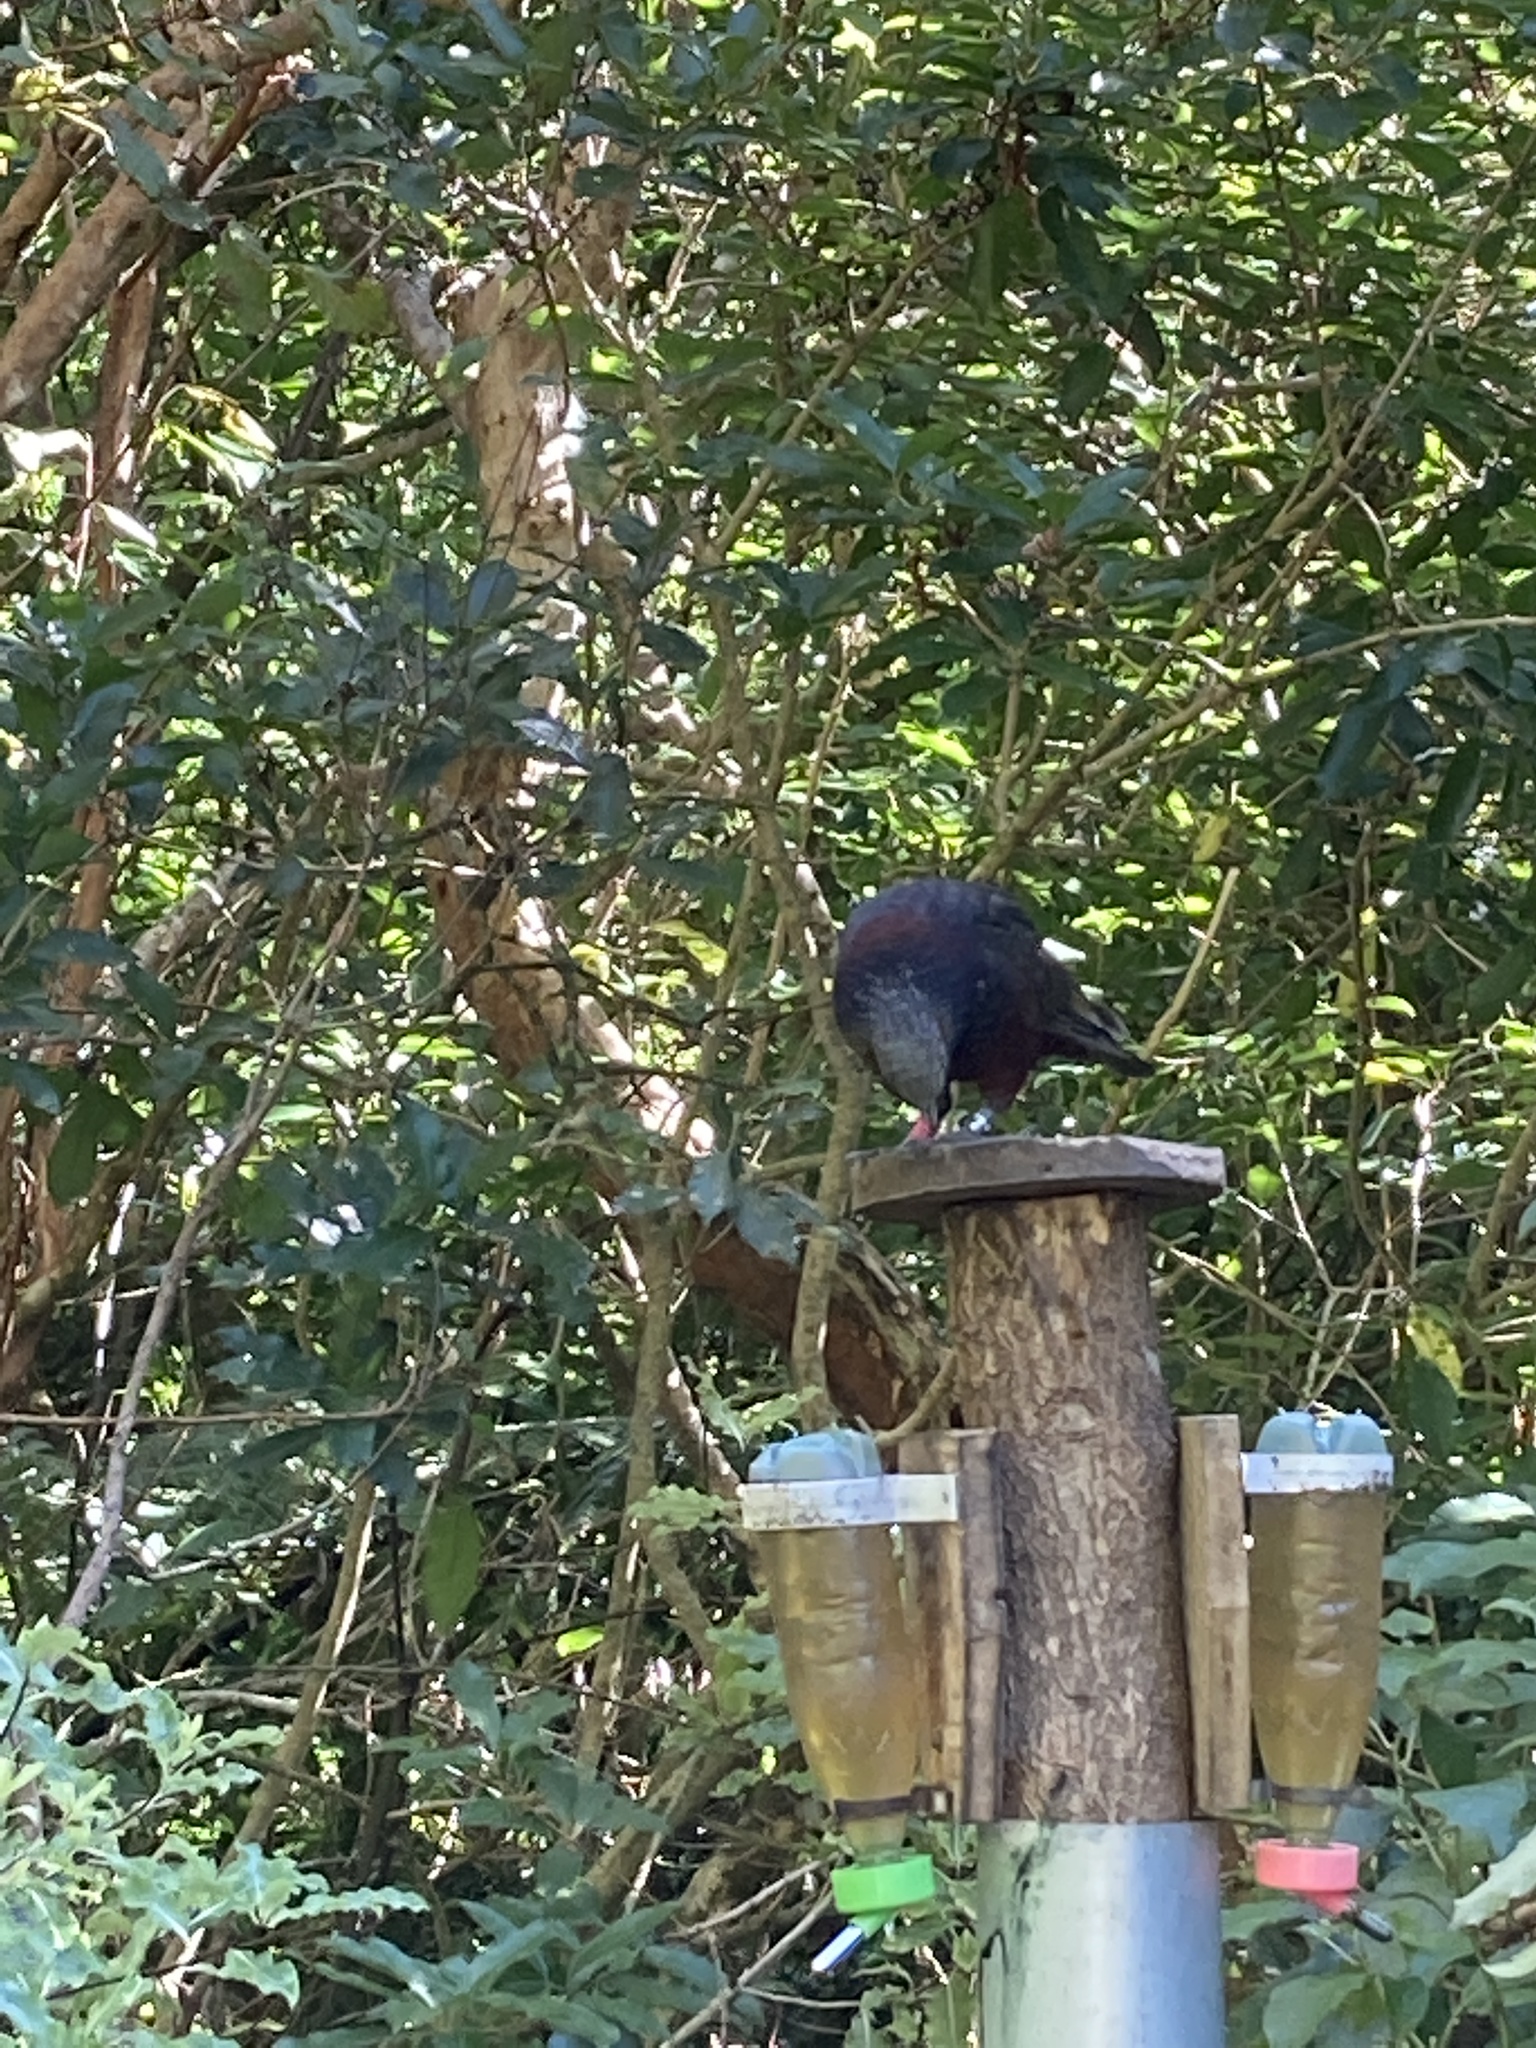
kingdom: Animalia
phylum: Chordata
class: Aves
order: Psittaciformes
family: Psittacidae
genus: Nestor
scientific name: Nestor meridionalis
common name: New zealand kaka
